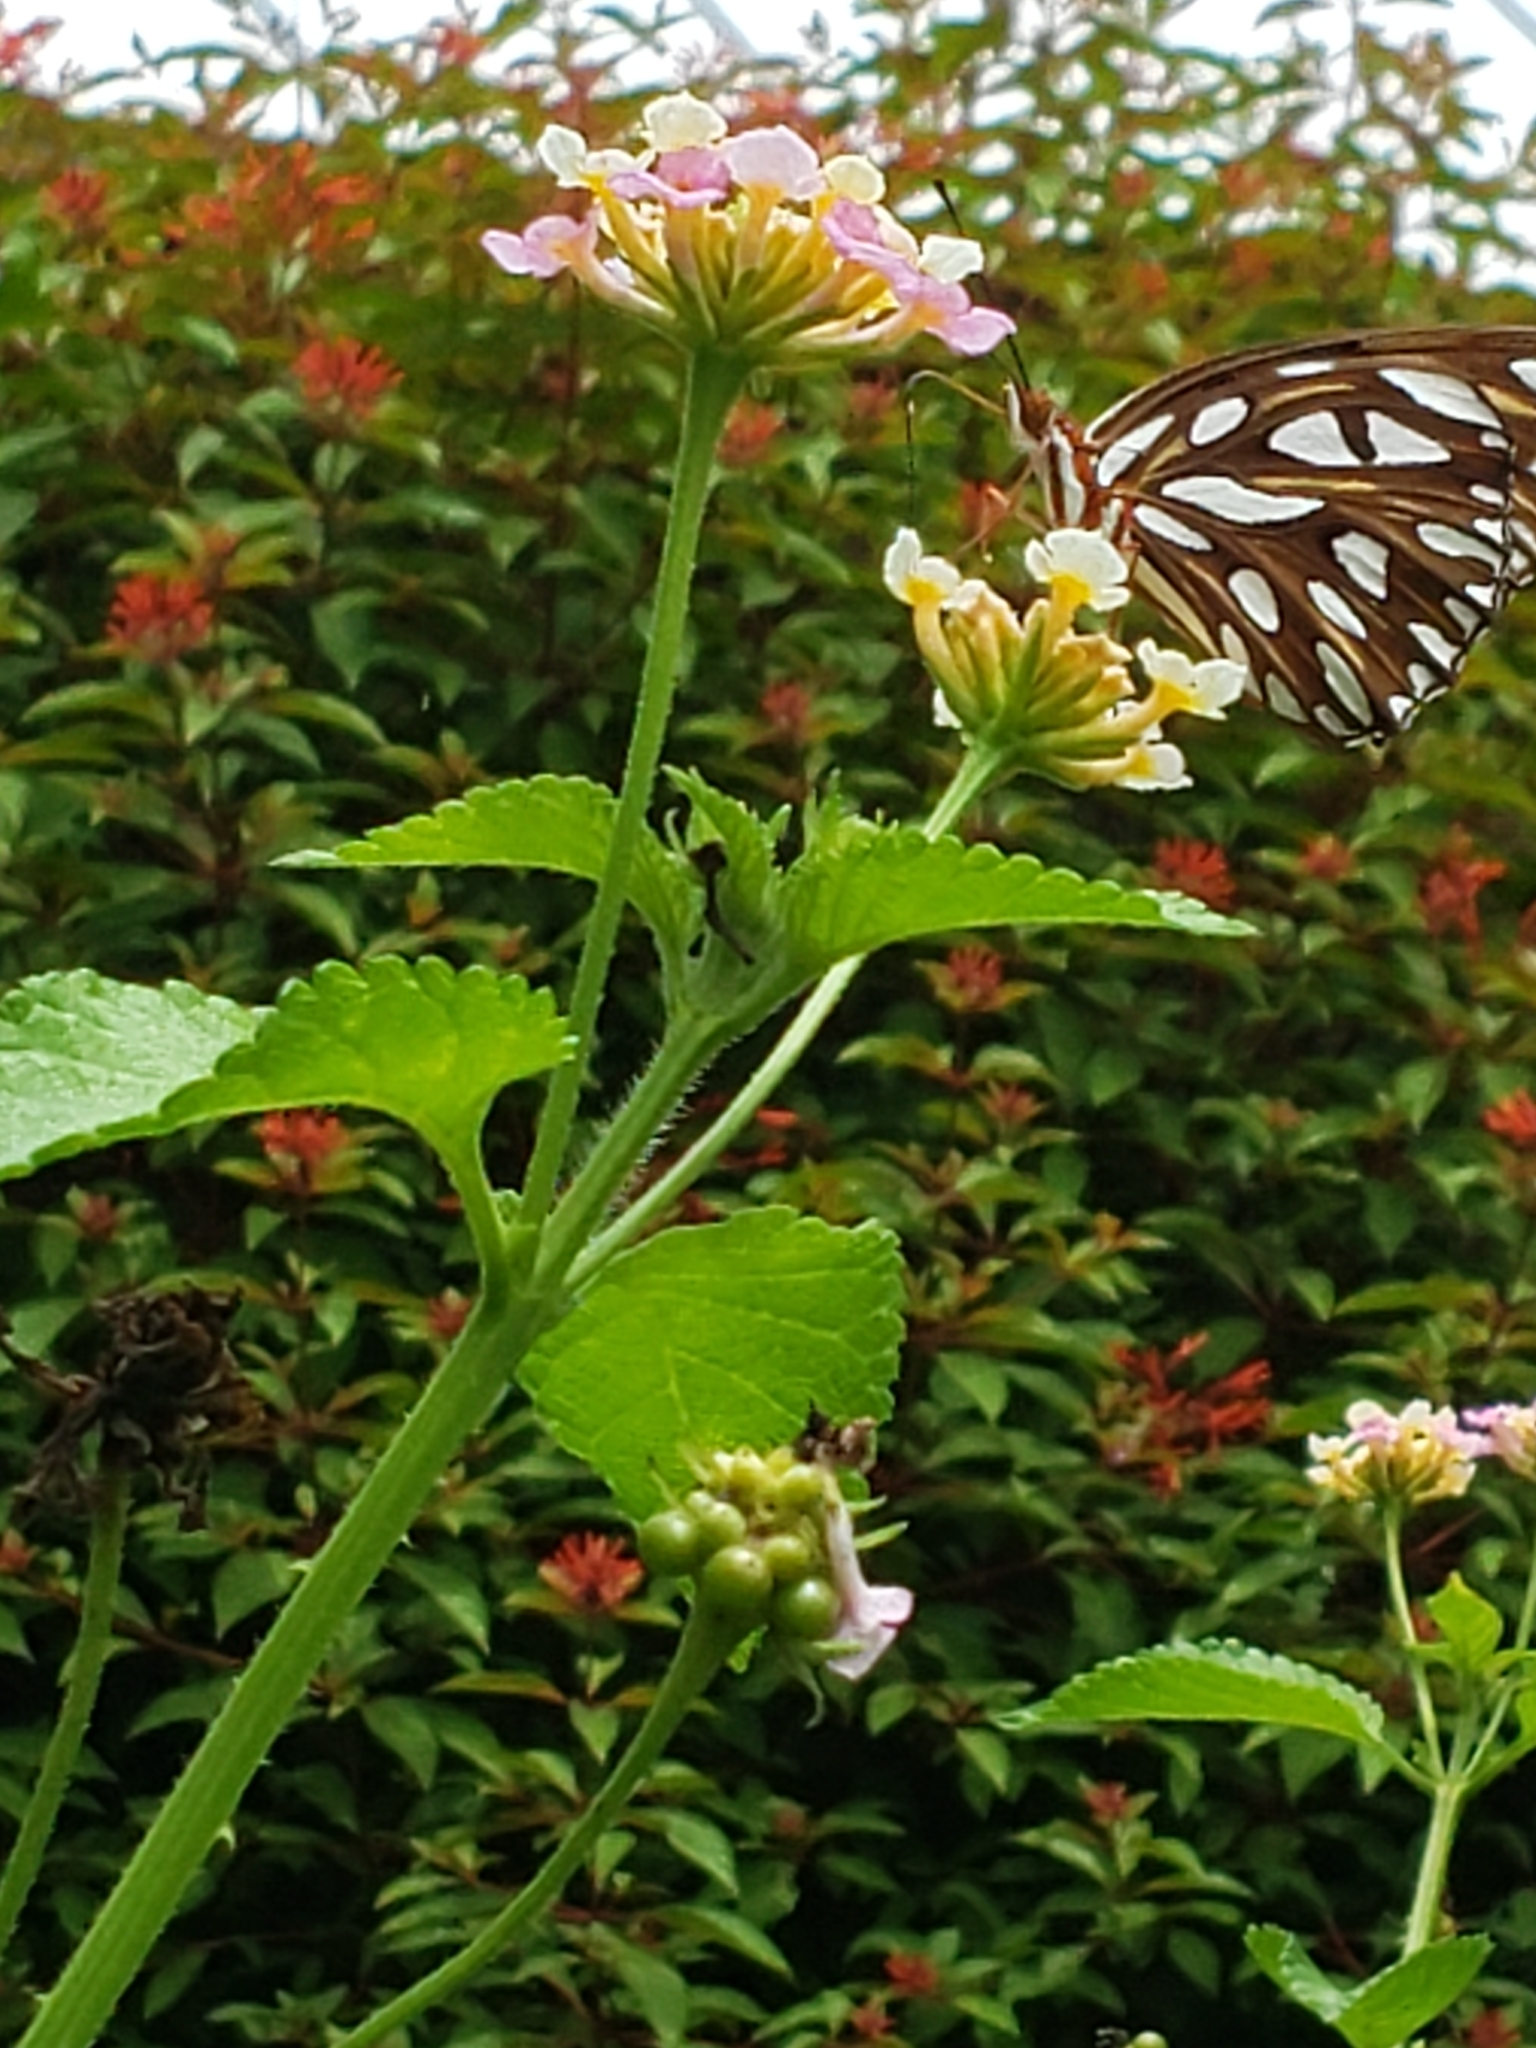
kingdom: Animalia
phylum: Arthropoda
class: Insecta
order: Lepidoptera
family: Nymphalidae
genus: Dione
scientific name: Dione vanillae
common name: Gulf fritillary
